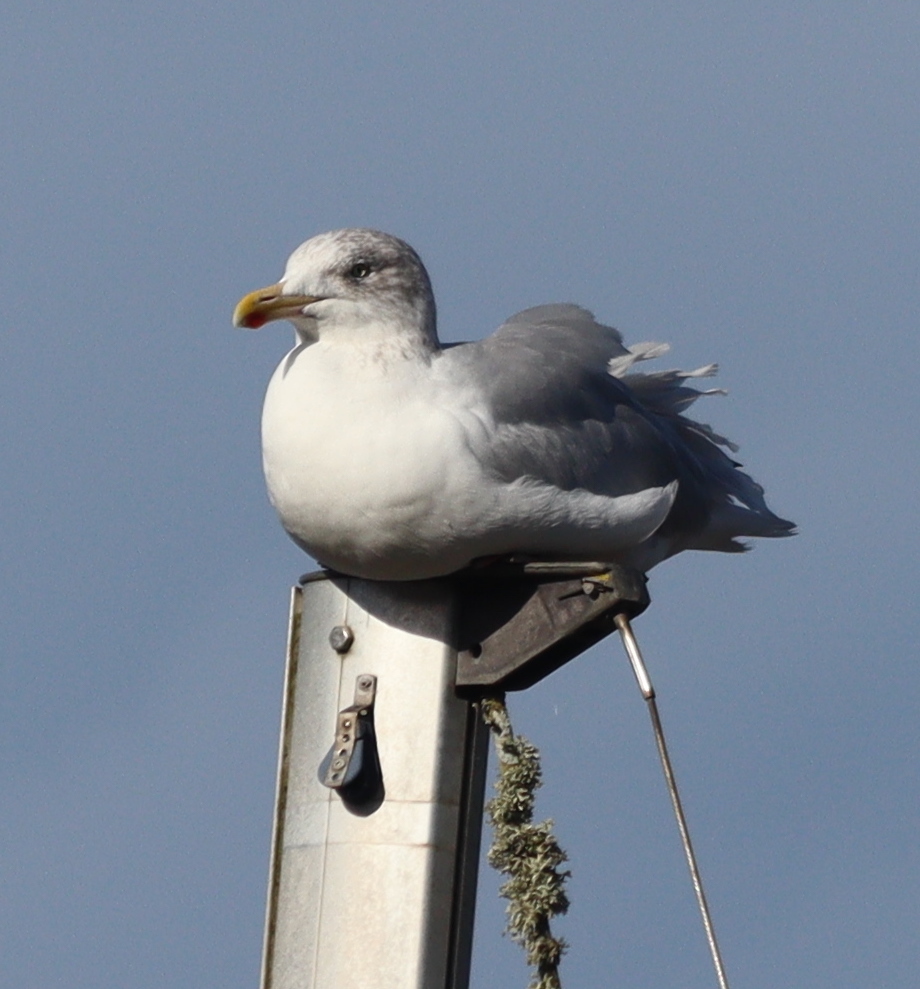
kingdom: Animalia
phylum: Chordata
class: Aves
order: Charadriiformes
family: Laridae
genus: Larus
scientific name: Larus argentatus
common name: Herring gull
